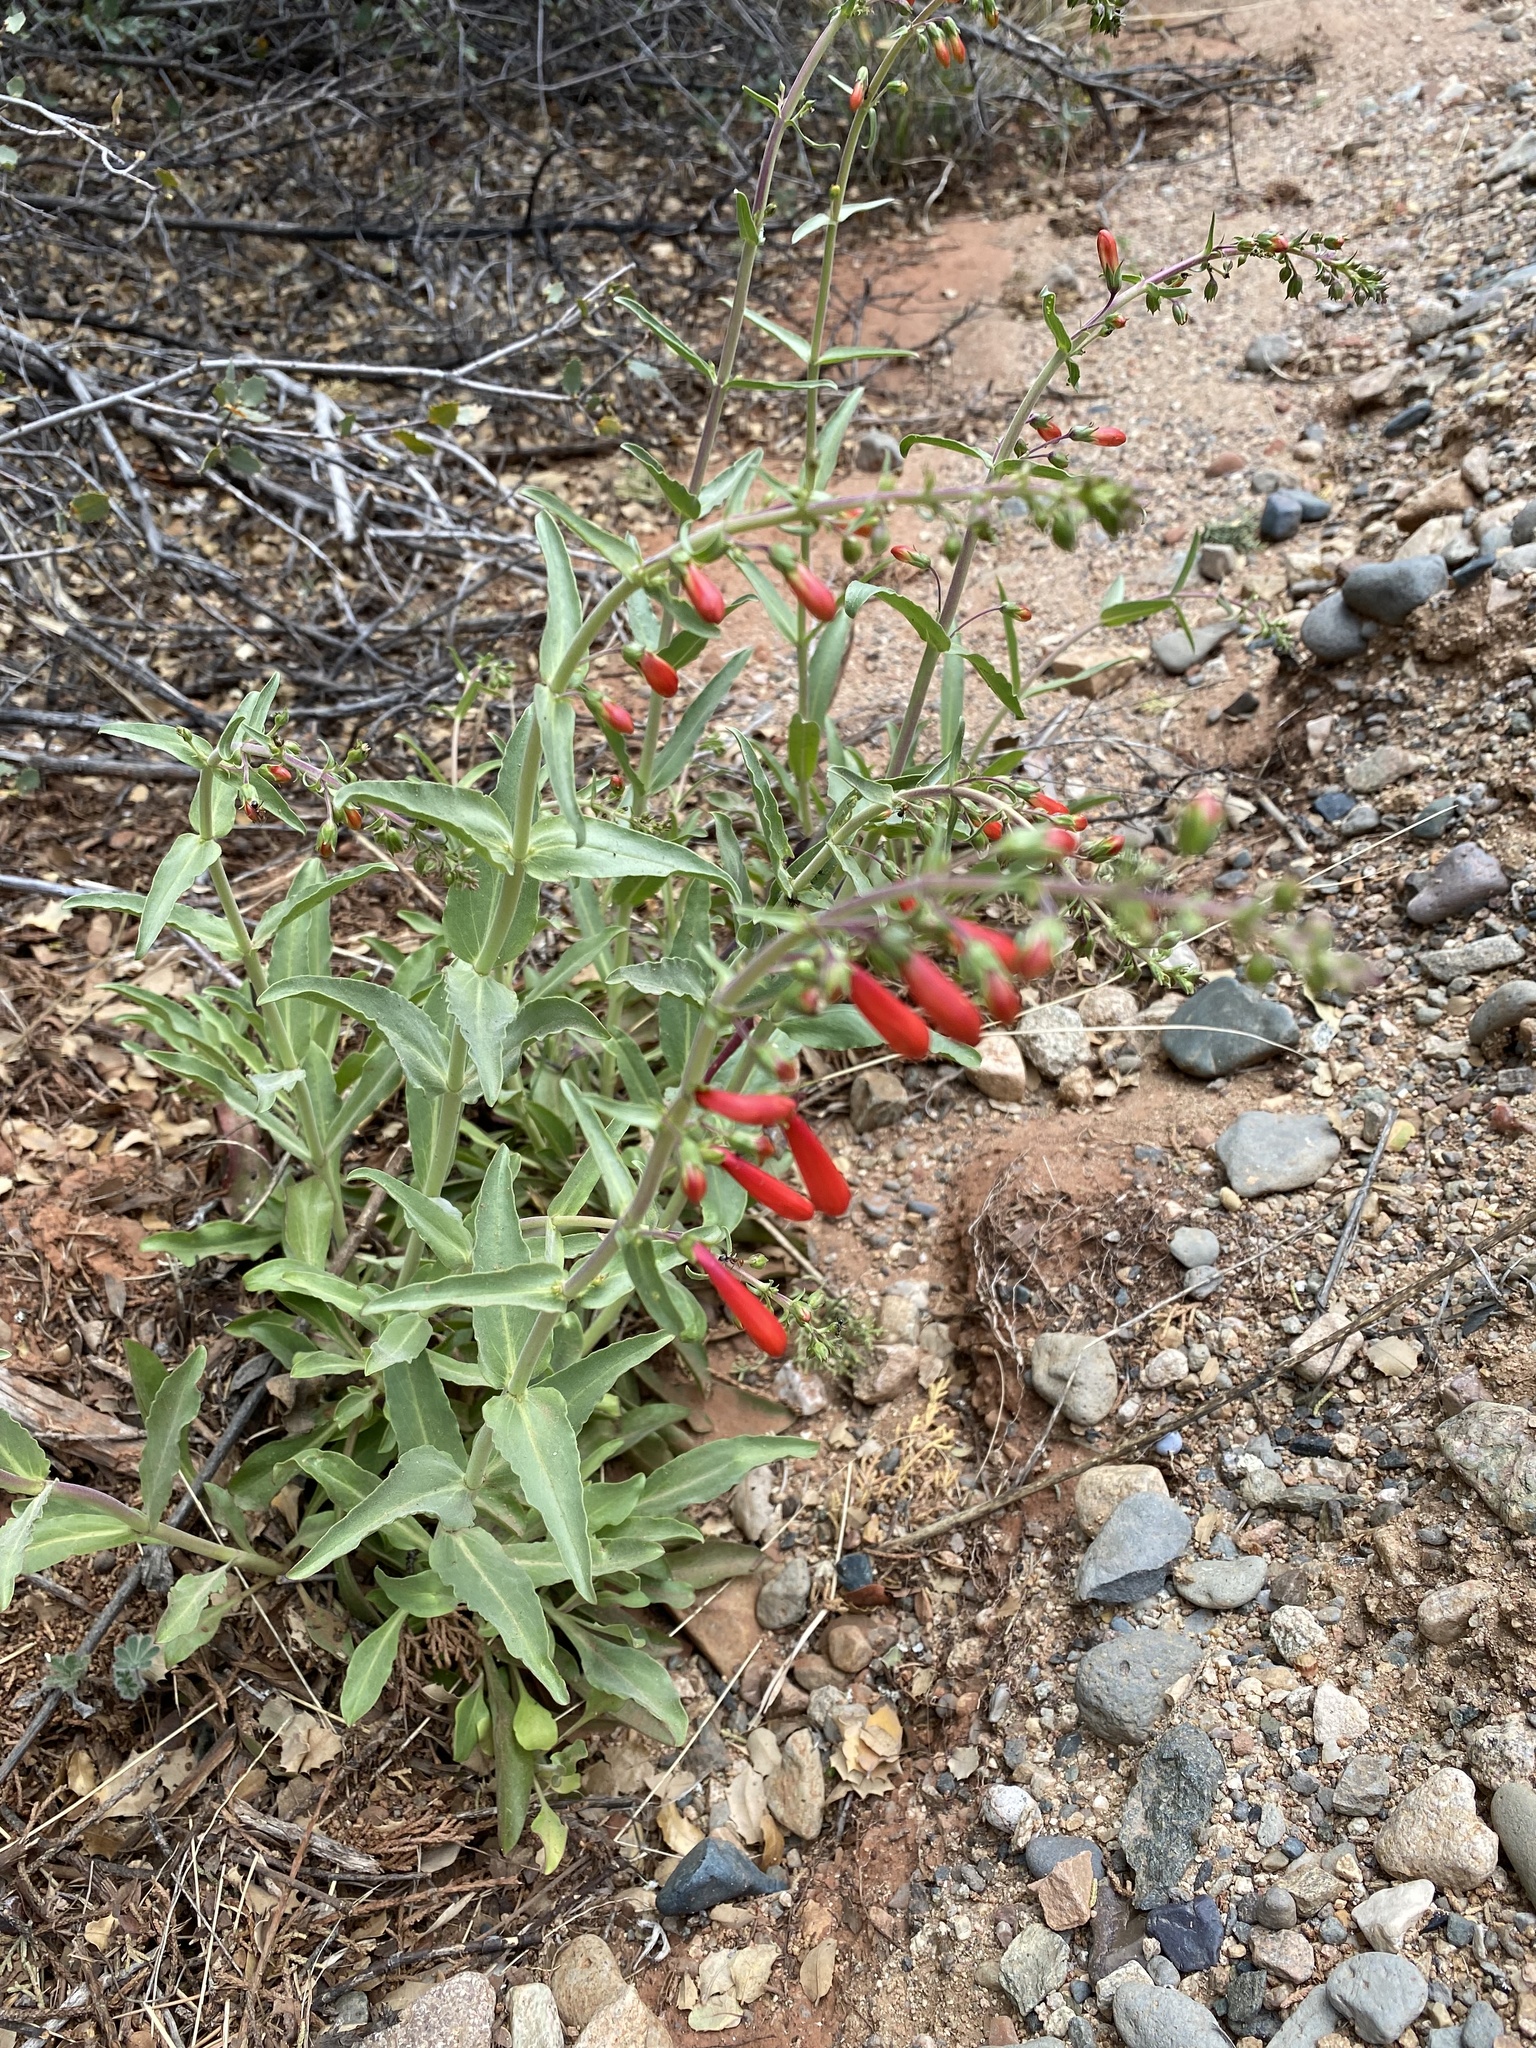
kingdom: Plantae
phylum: Tracheophyta
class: Magnoliopsida
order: Lamiales
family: Plantaginaceae
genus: Penstemon
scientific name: Penstemon eatonii
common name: Eaton's penstemon
